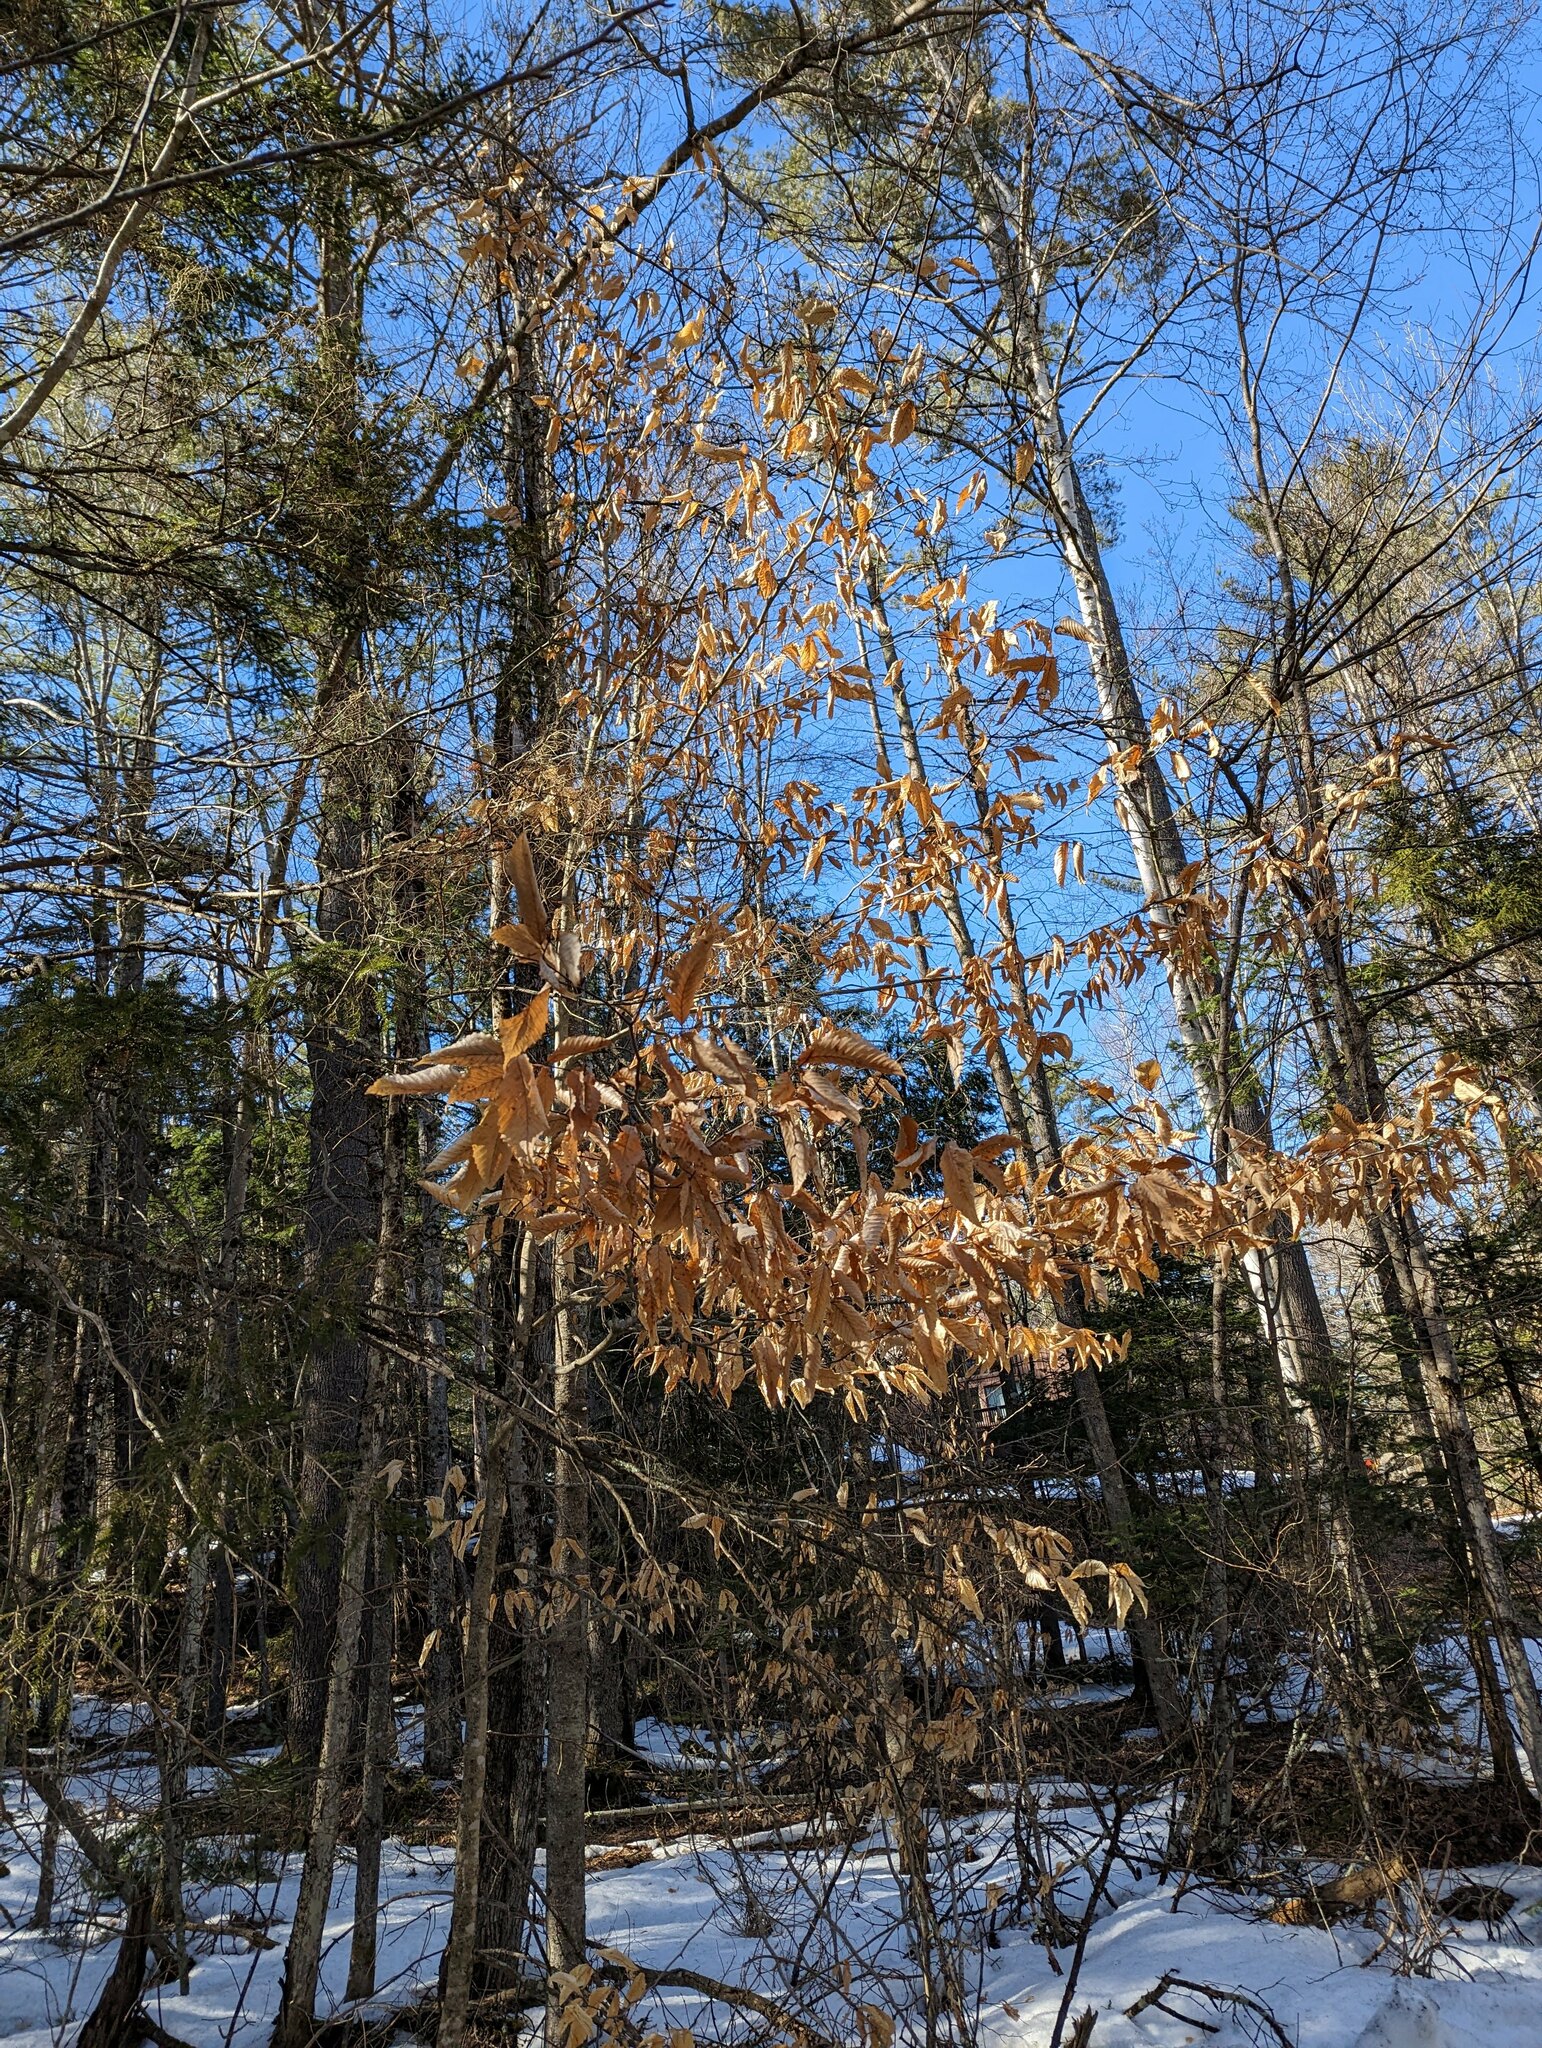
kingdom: Plantae
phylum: Tracheophyta
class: Magnoliopsida
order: Fagales
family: Fagaceae
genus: Fagus
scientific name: Fagus grandifolia
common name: American beech
